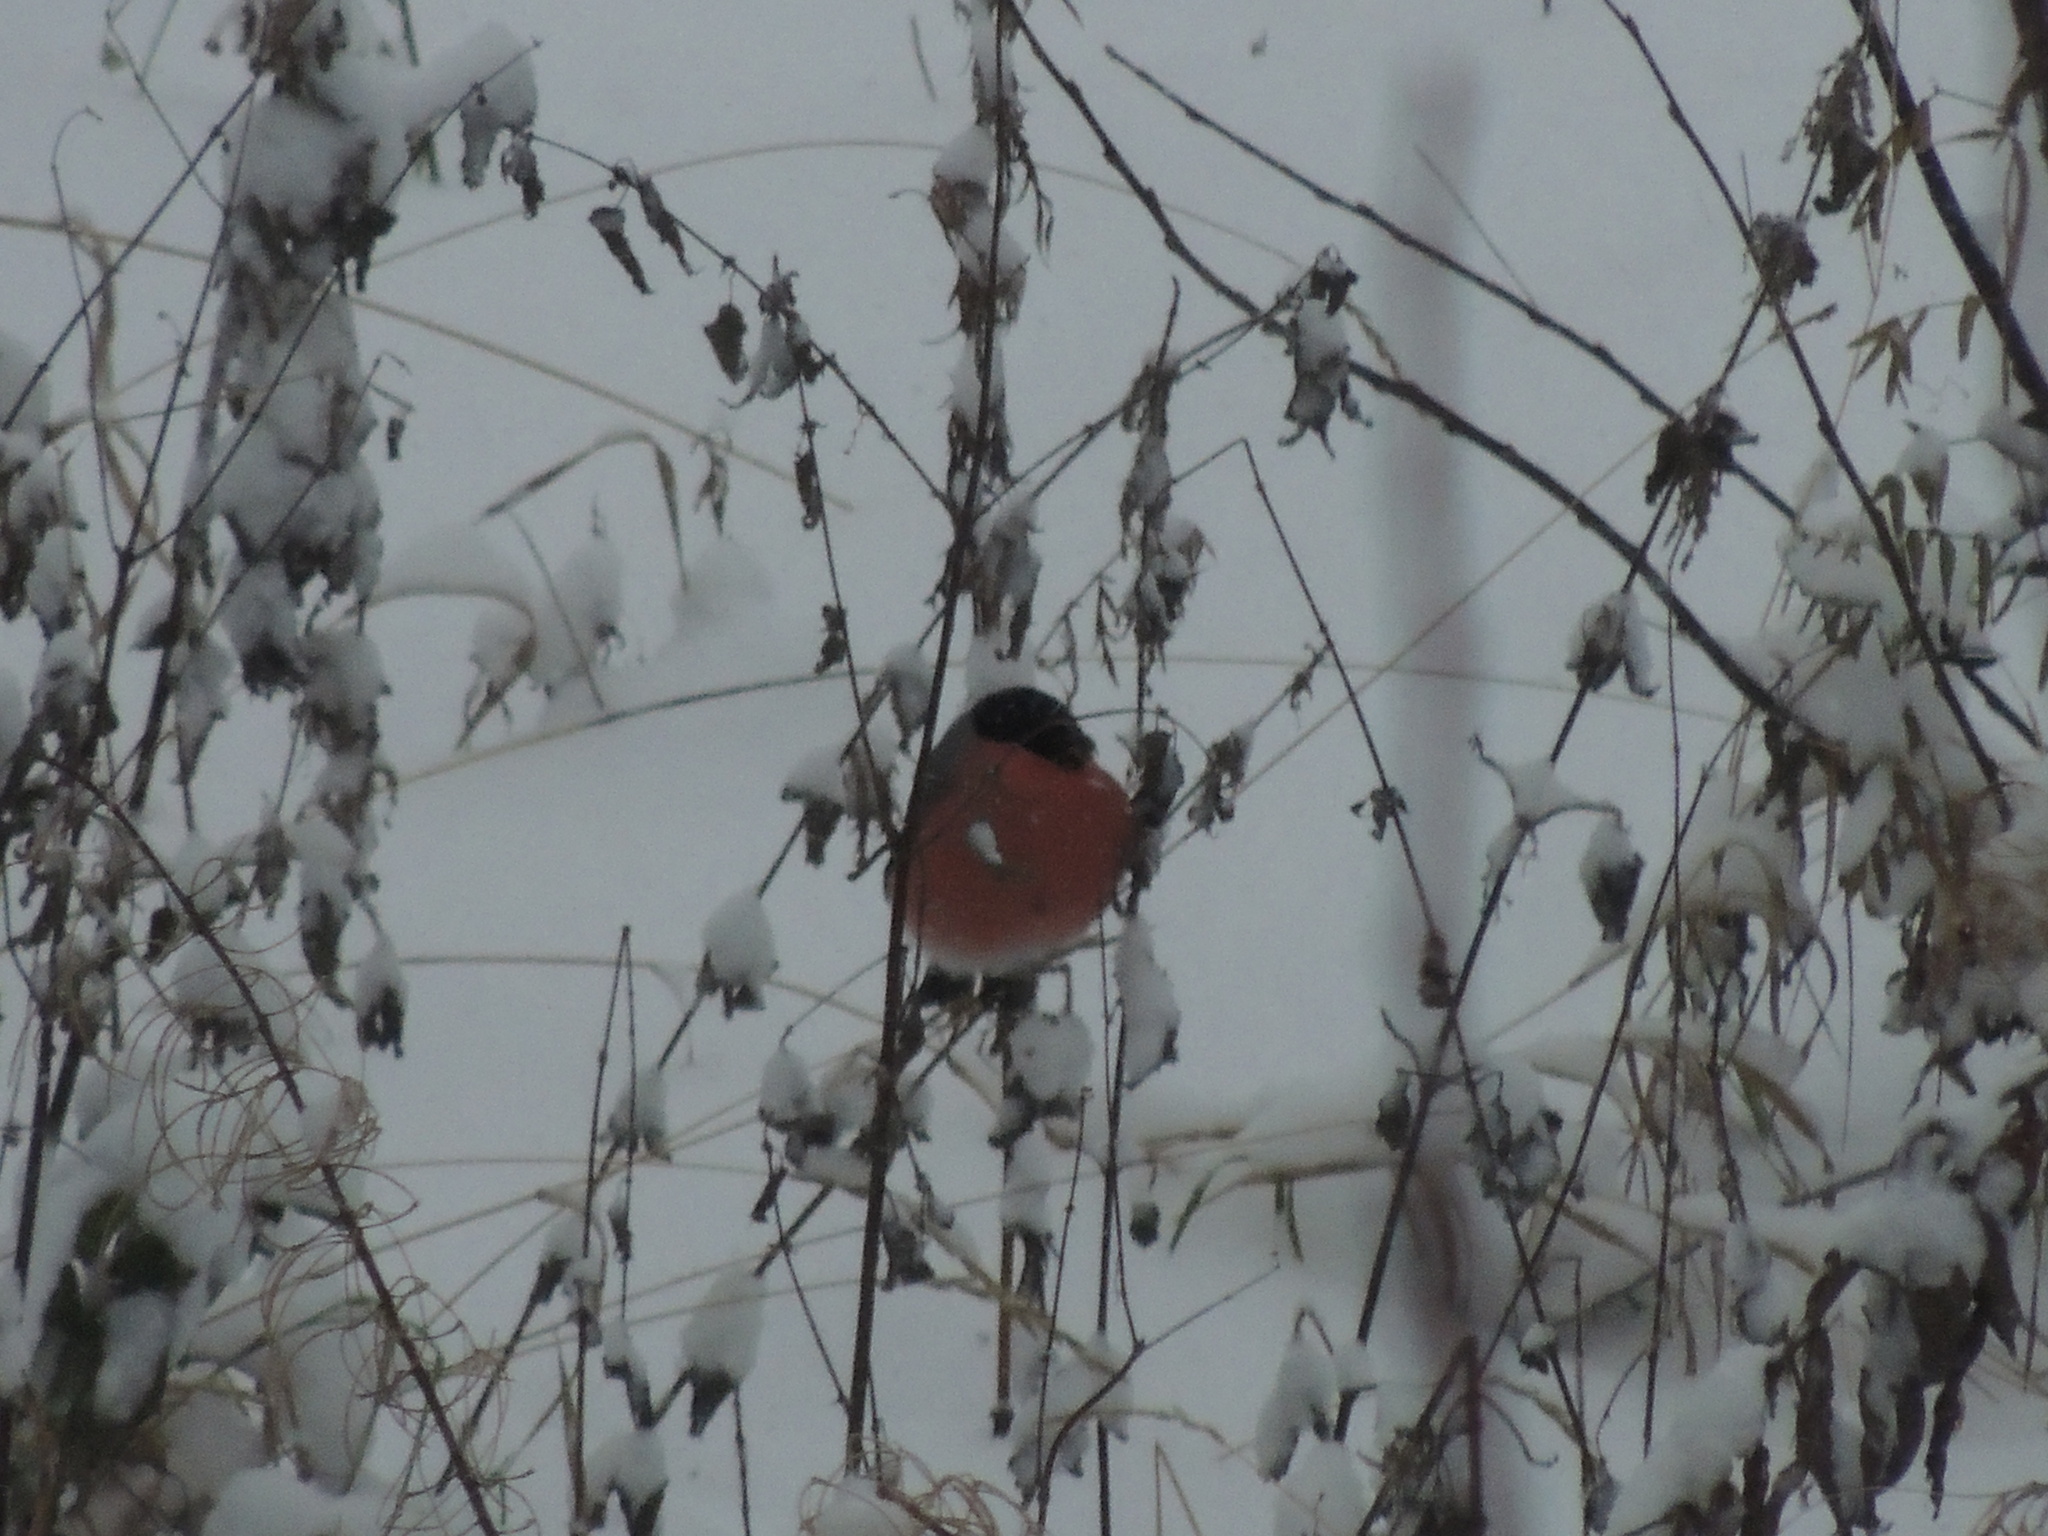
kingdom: Animalia
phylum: Chordata
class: Aves
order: Passeriformes
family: Fringillidae
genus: Pyrrhula
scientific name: Pyrrhula pyrrhula
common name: Eurasian bullfinch
